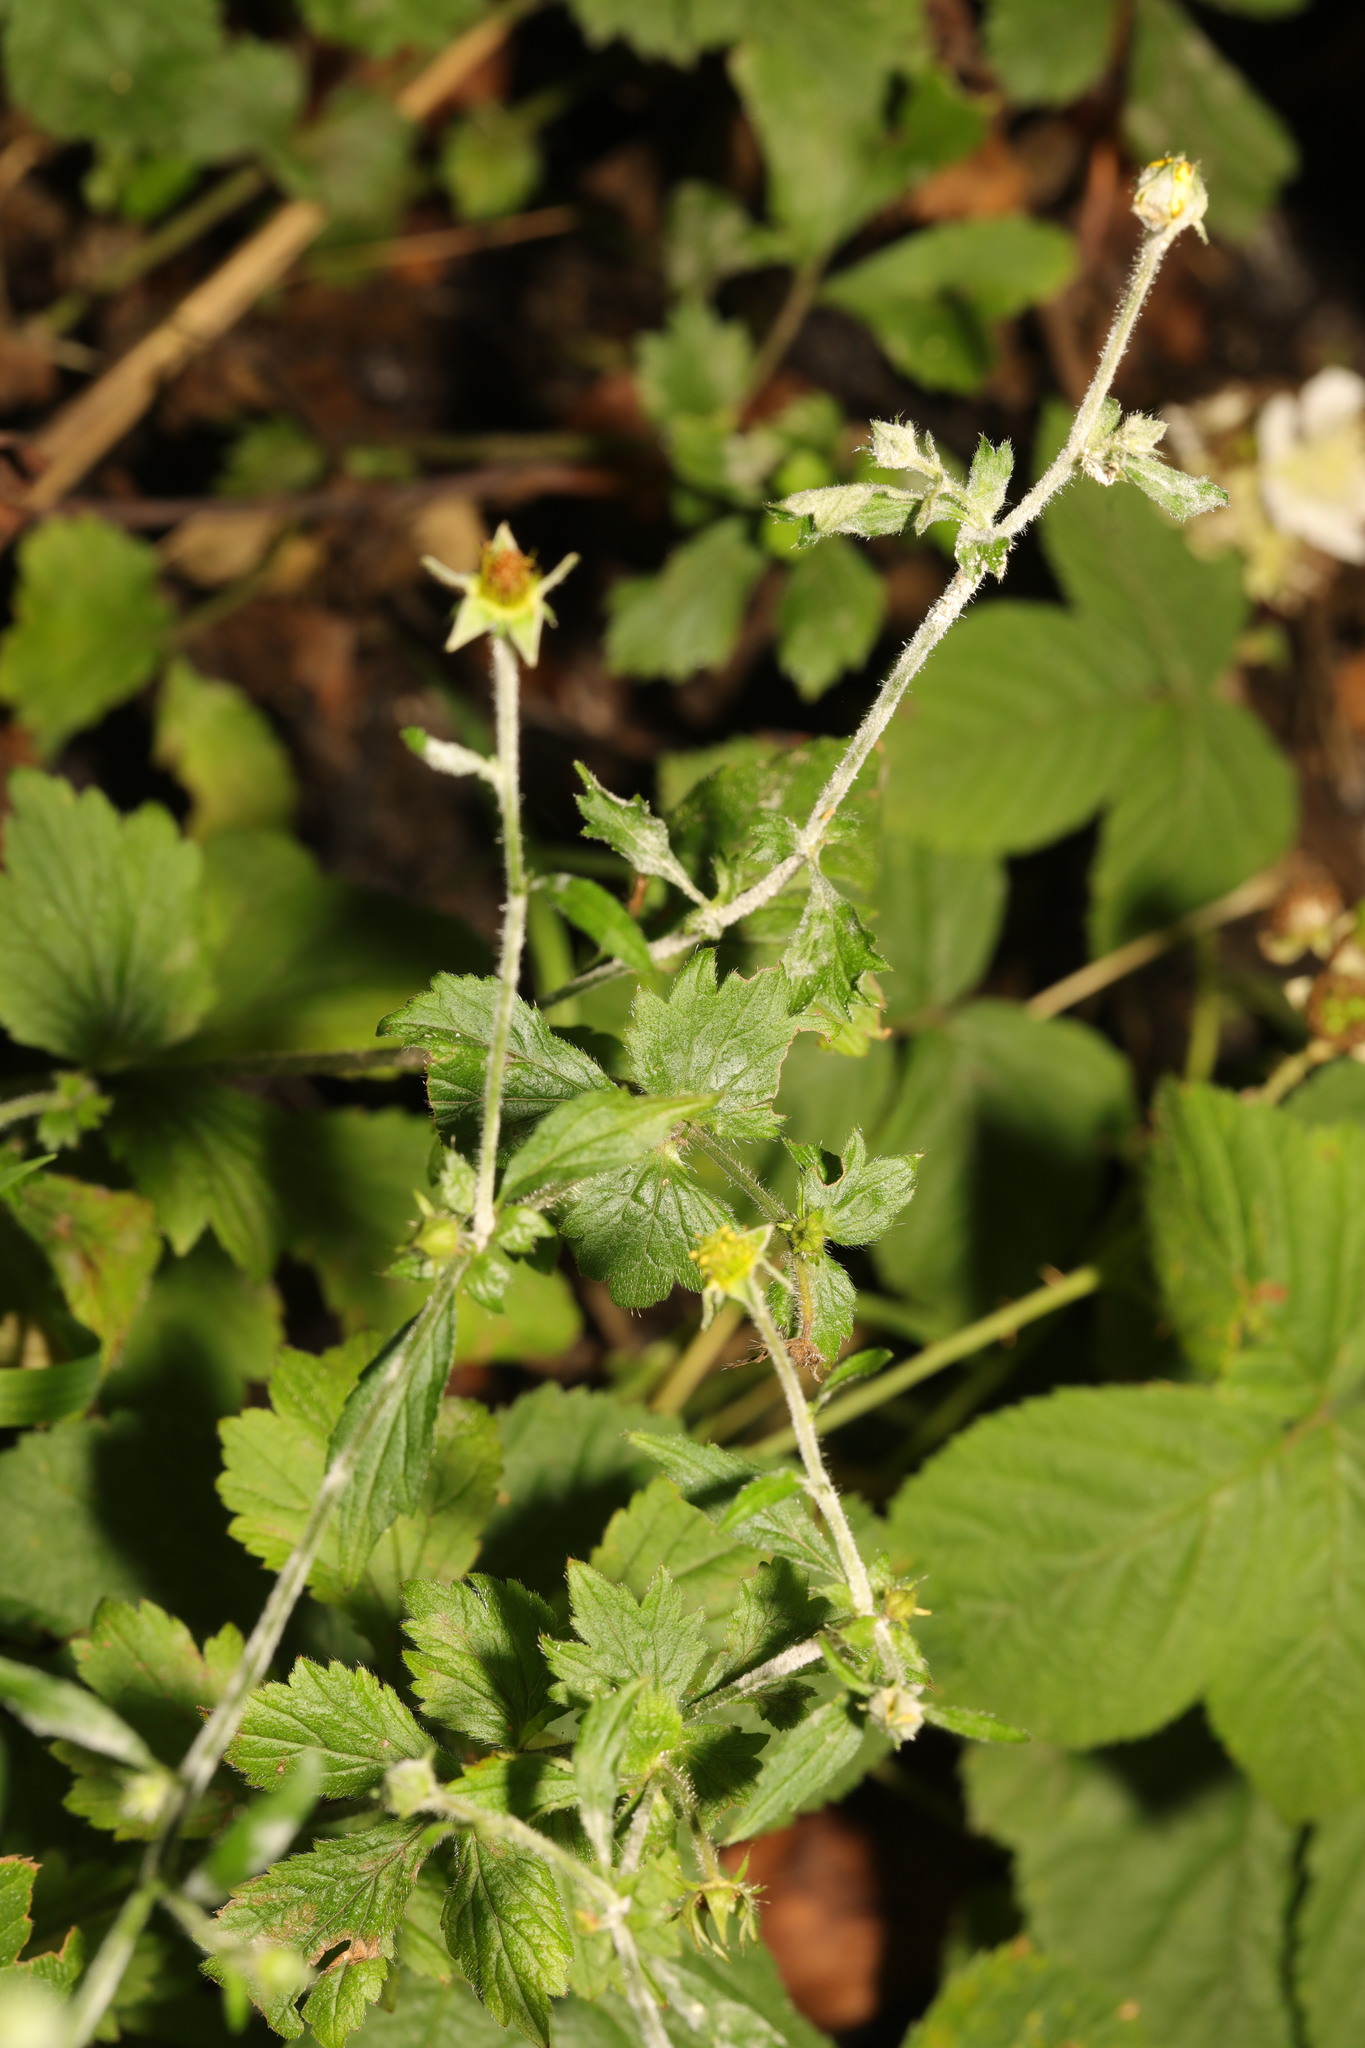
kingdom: Plantae
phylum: Tracheophyta
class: Magnoliopsida
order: Rosales
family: Rosaceae
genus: Geum
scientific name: Geum urbanum
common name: Wood avens
